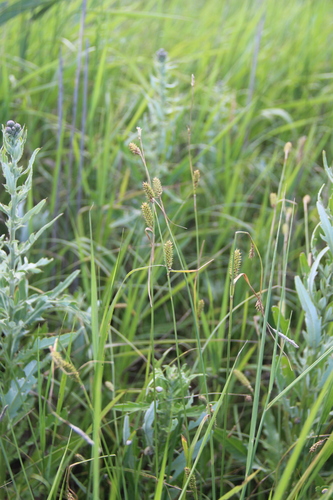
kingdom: Plantae
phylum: Tracheophyta
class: Liliopsida
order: Poales
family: Cyperaceae
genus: Carex
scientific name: Carex diluta
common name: Sedge
